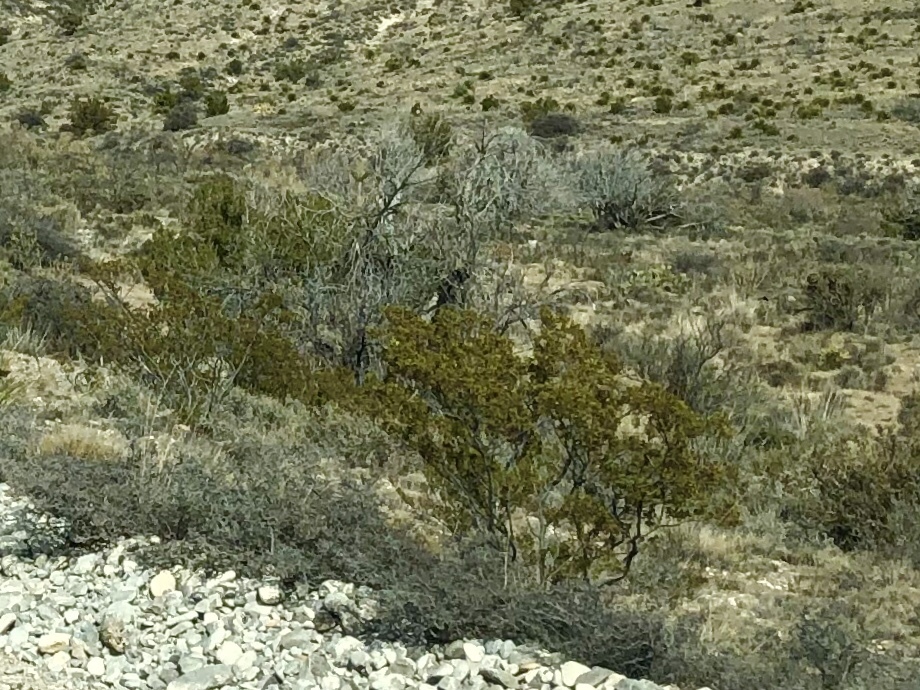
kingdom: Plantae
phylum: Tracheophyta
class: Magnoliopsida
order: Zygophyllales
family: Zygophyllaceae
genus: Larrea
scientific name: Larrea tridentata
